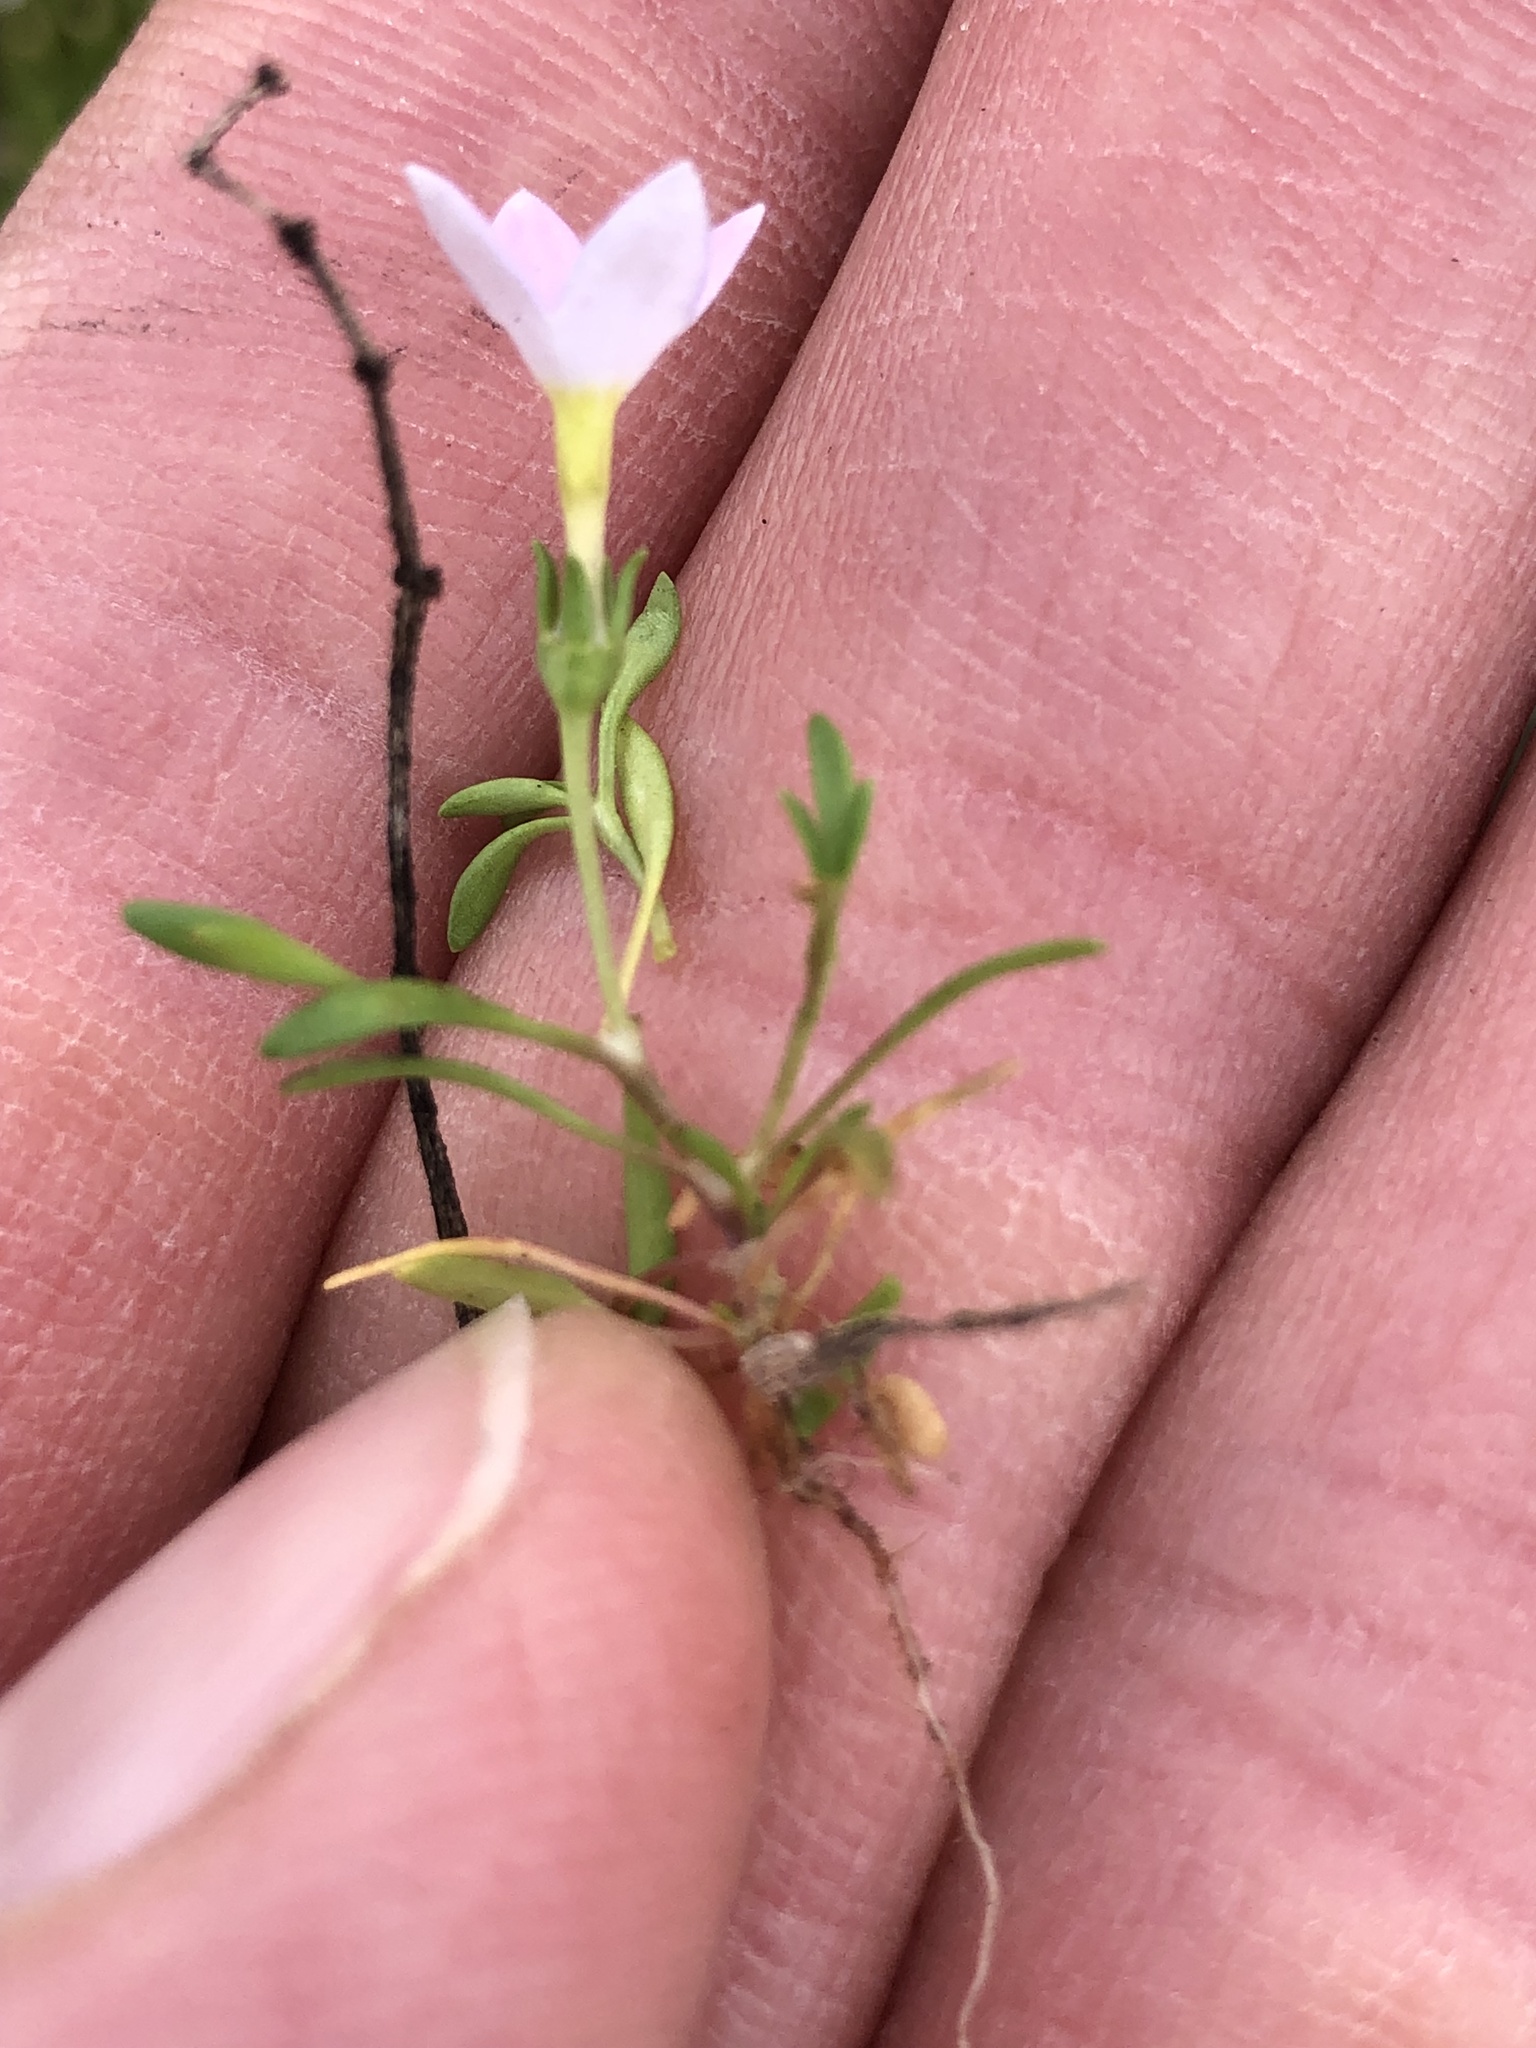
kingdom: Plantae
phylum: Tracheophyta
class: Magnoliopsida
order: Gentianales
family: Rubiaceae
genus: Houstonia
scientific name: Houstonia rosea
